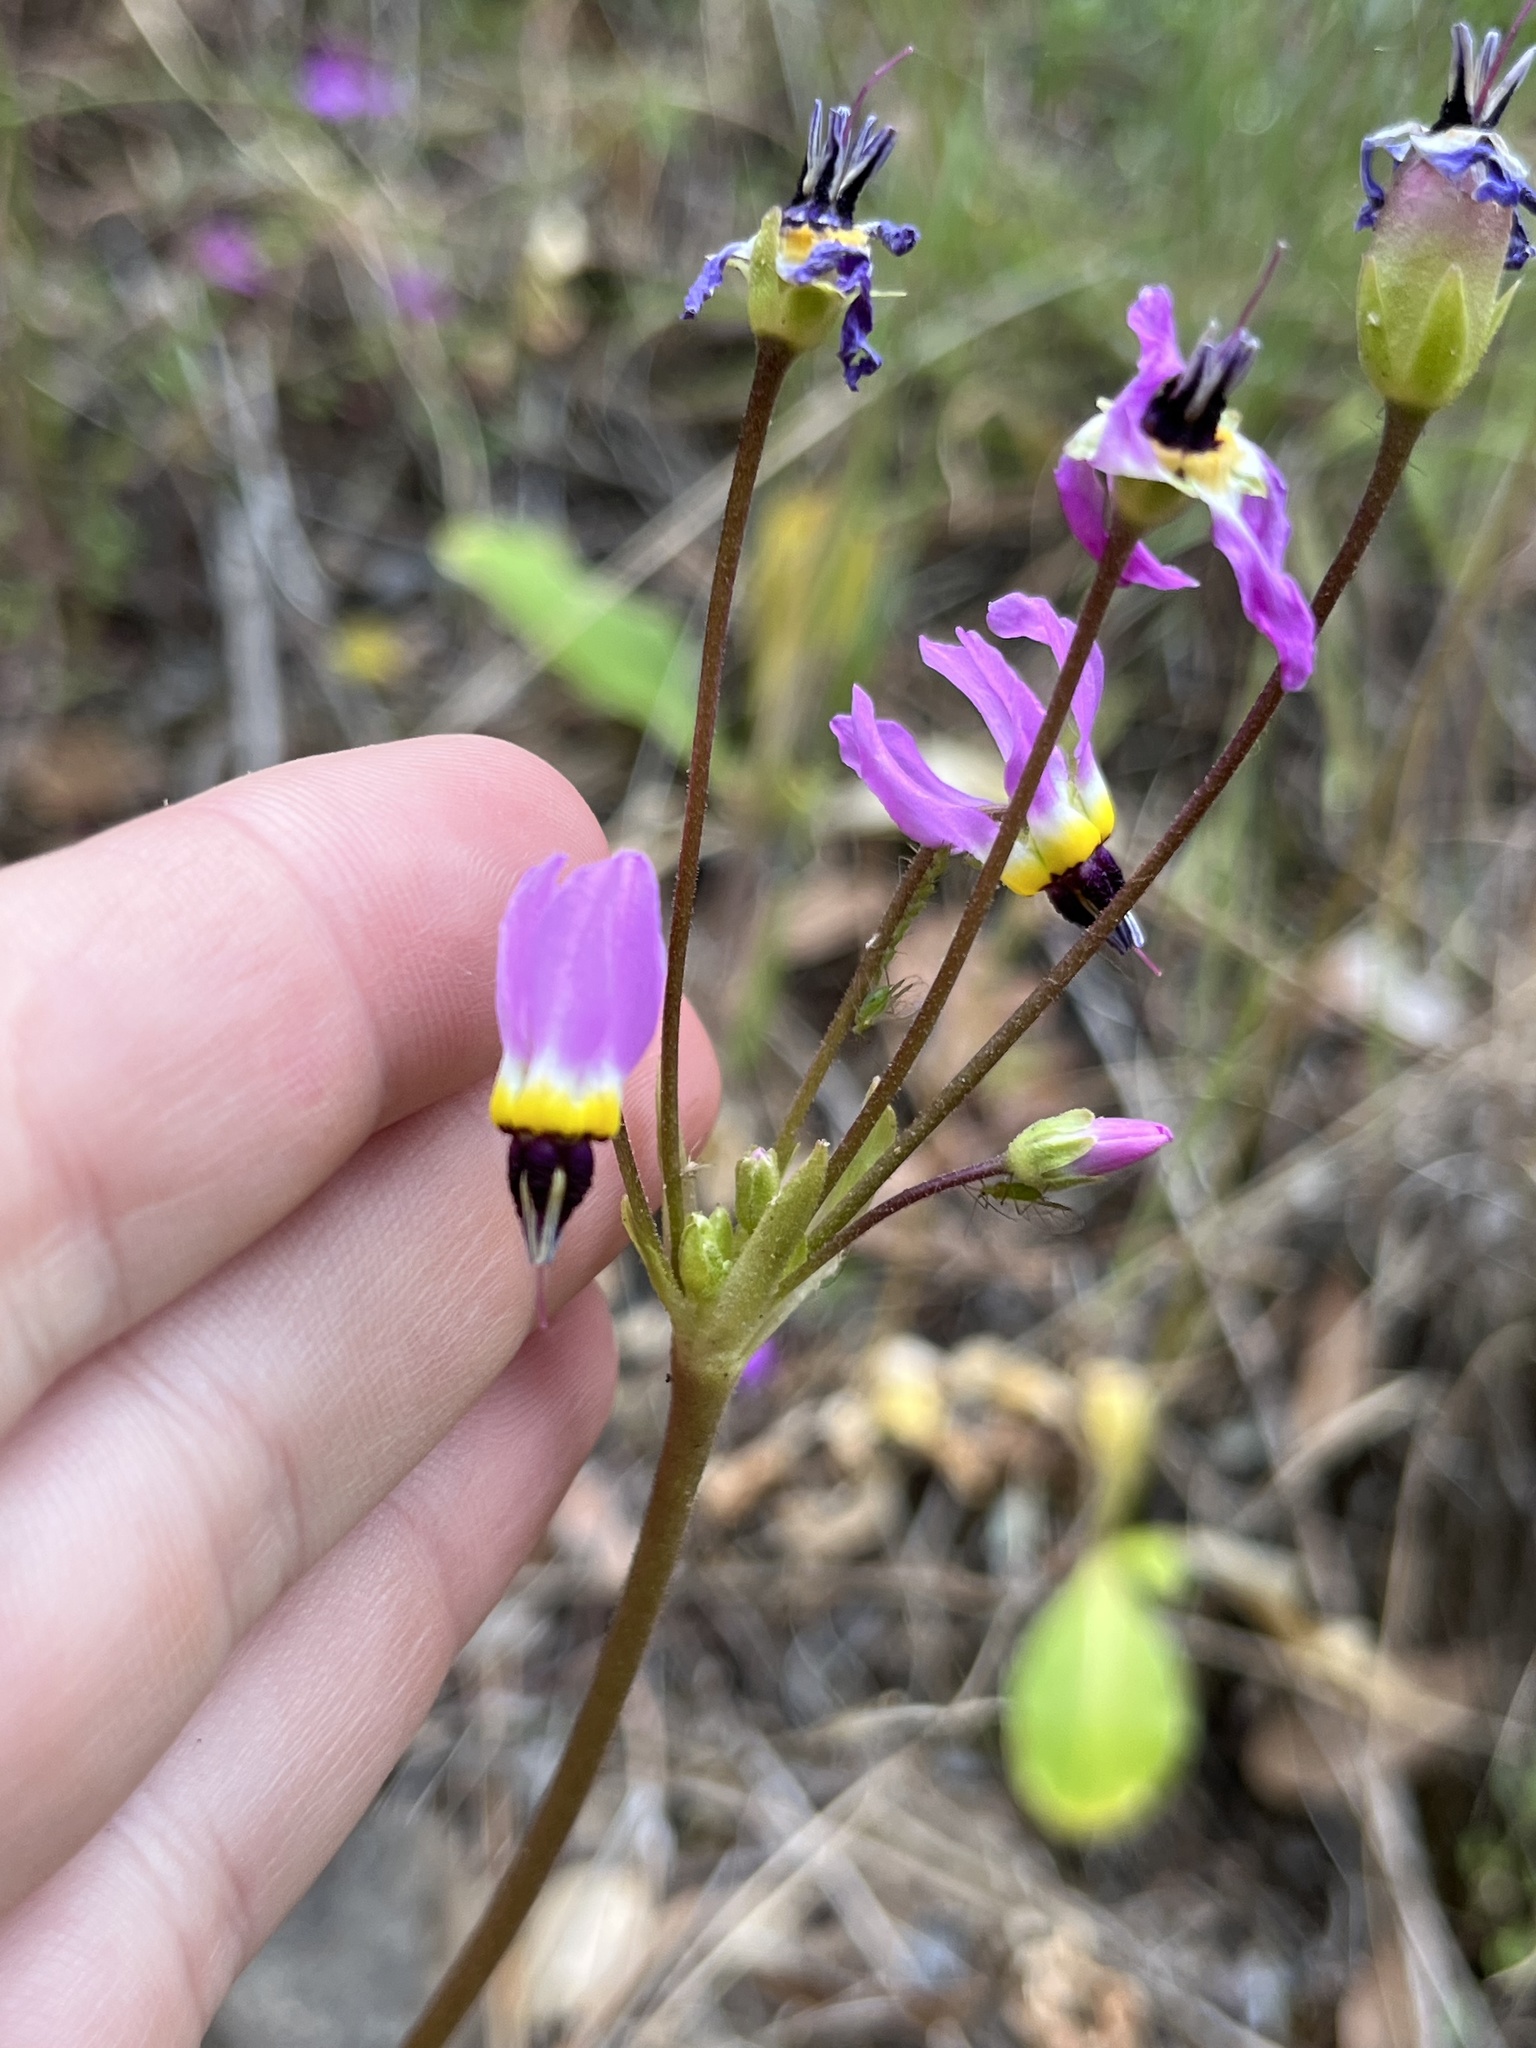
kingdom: Plantae
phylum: Tracheophyta
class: Magnoliopsida
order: Ericales
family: Primulaceae
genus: Dodecatheon
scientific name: Dodecatheon clevelandii
